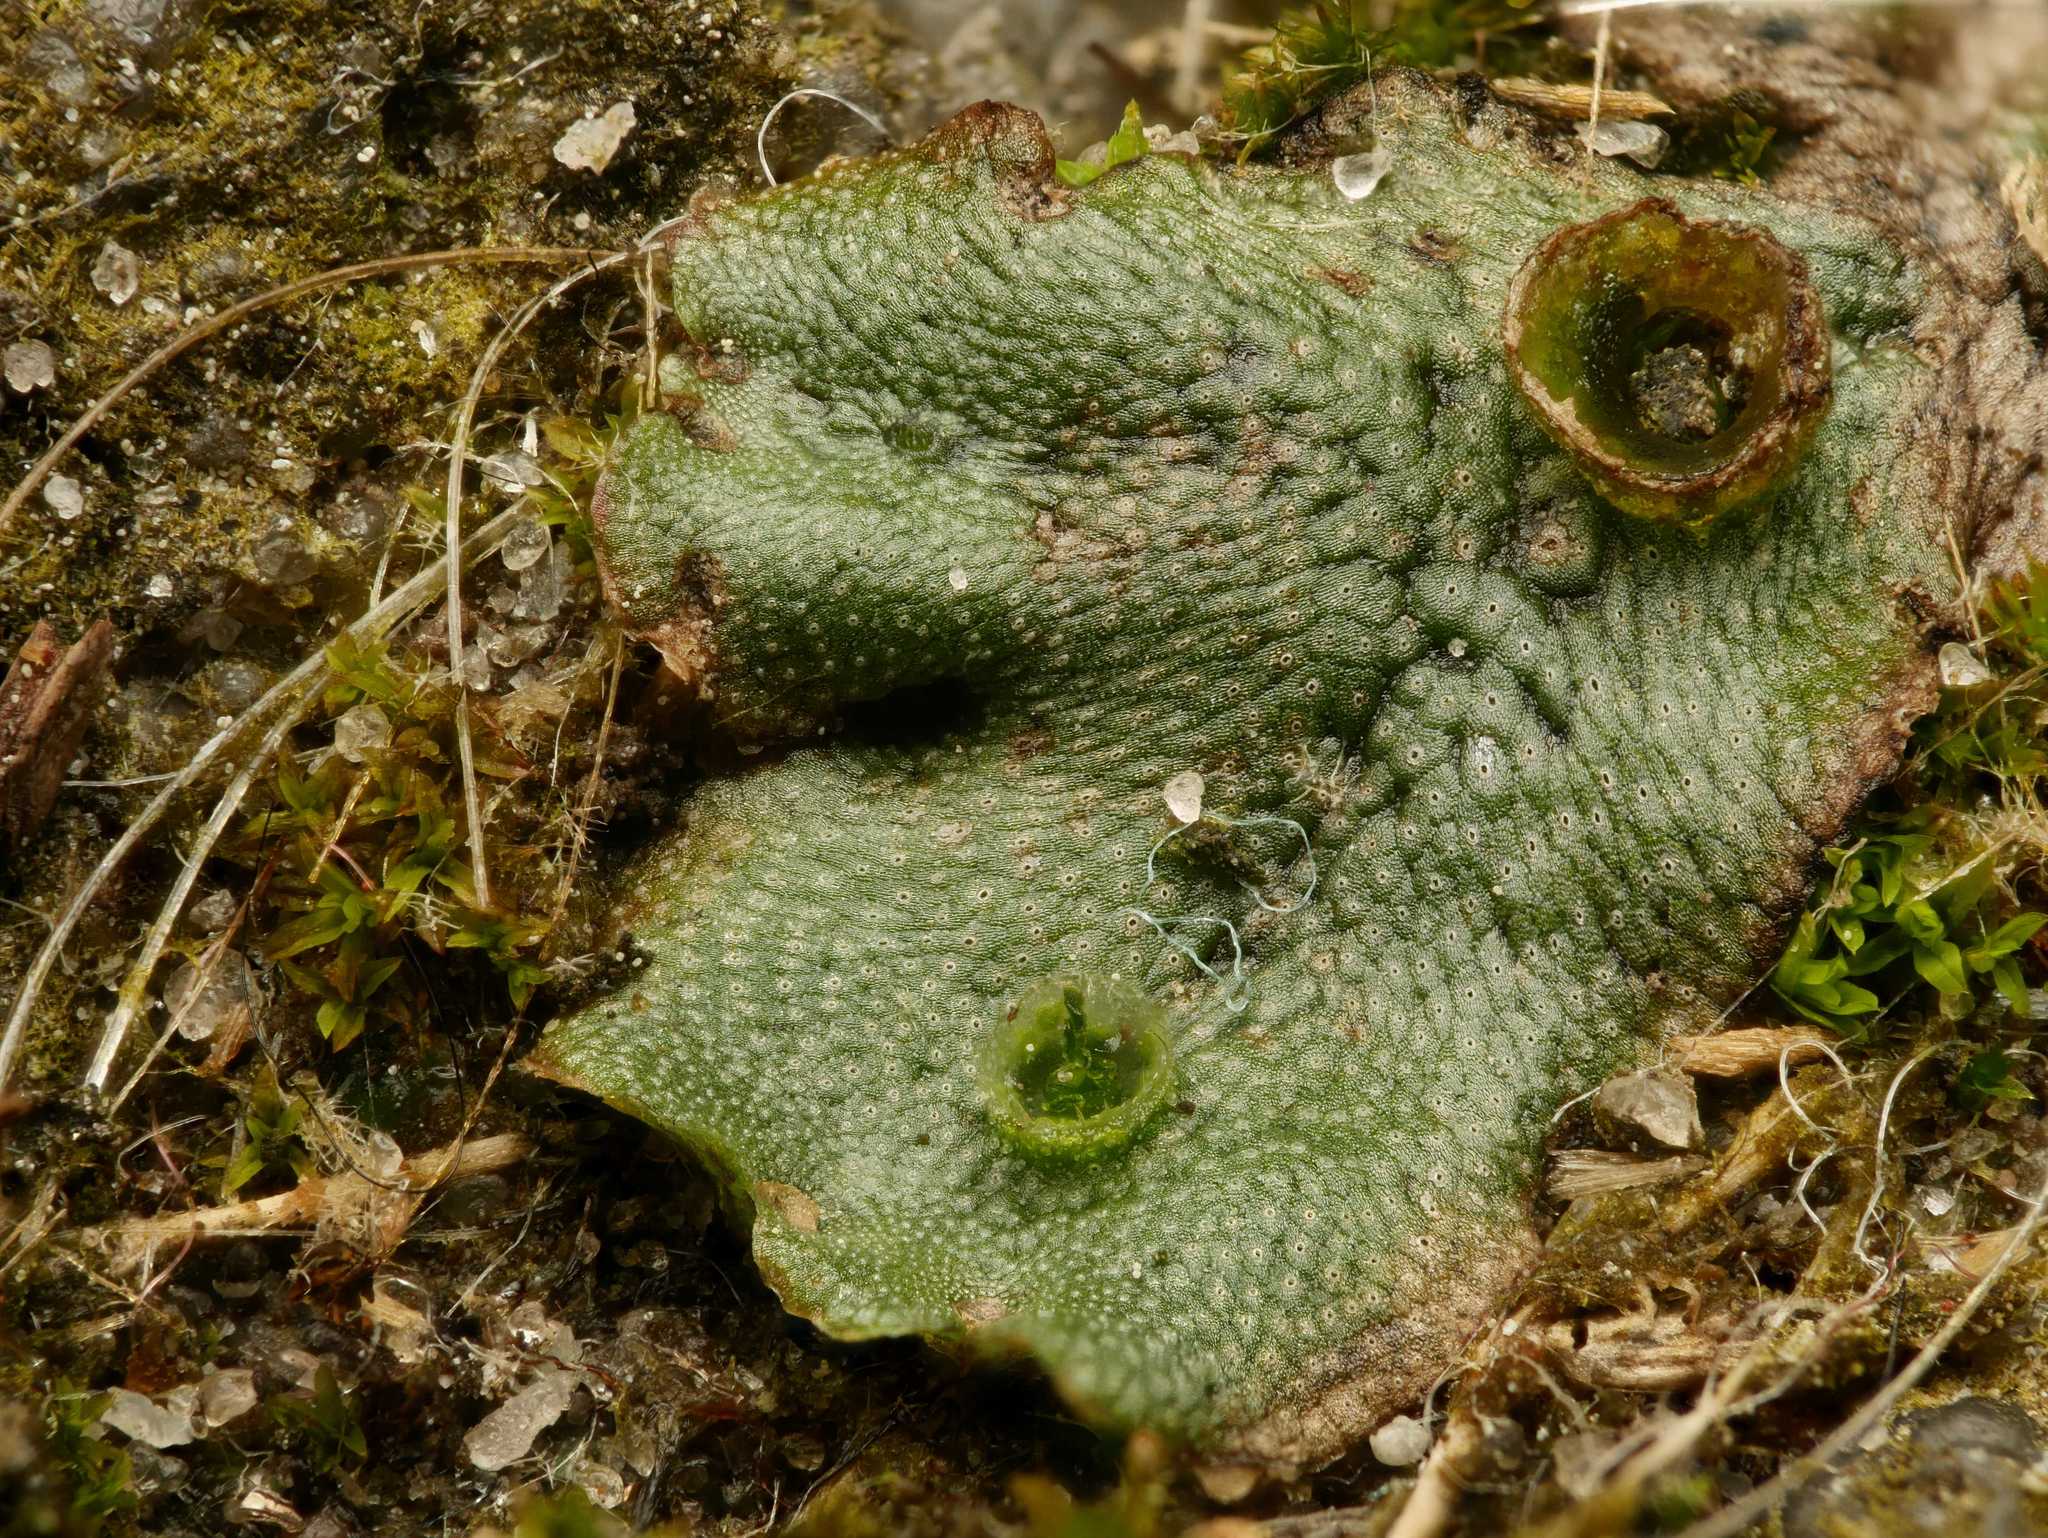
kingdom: Plantae
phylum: Marchantiophyta
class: Marchantiopsida
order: Marchantiales
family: Marchantiaceae
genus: Marchantia
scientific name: Marchantia polymorpha
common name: Common liverwort
